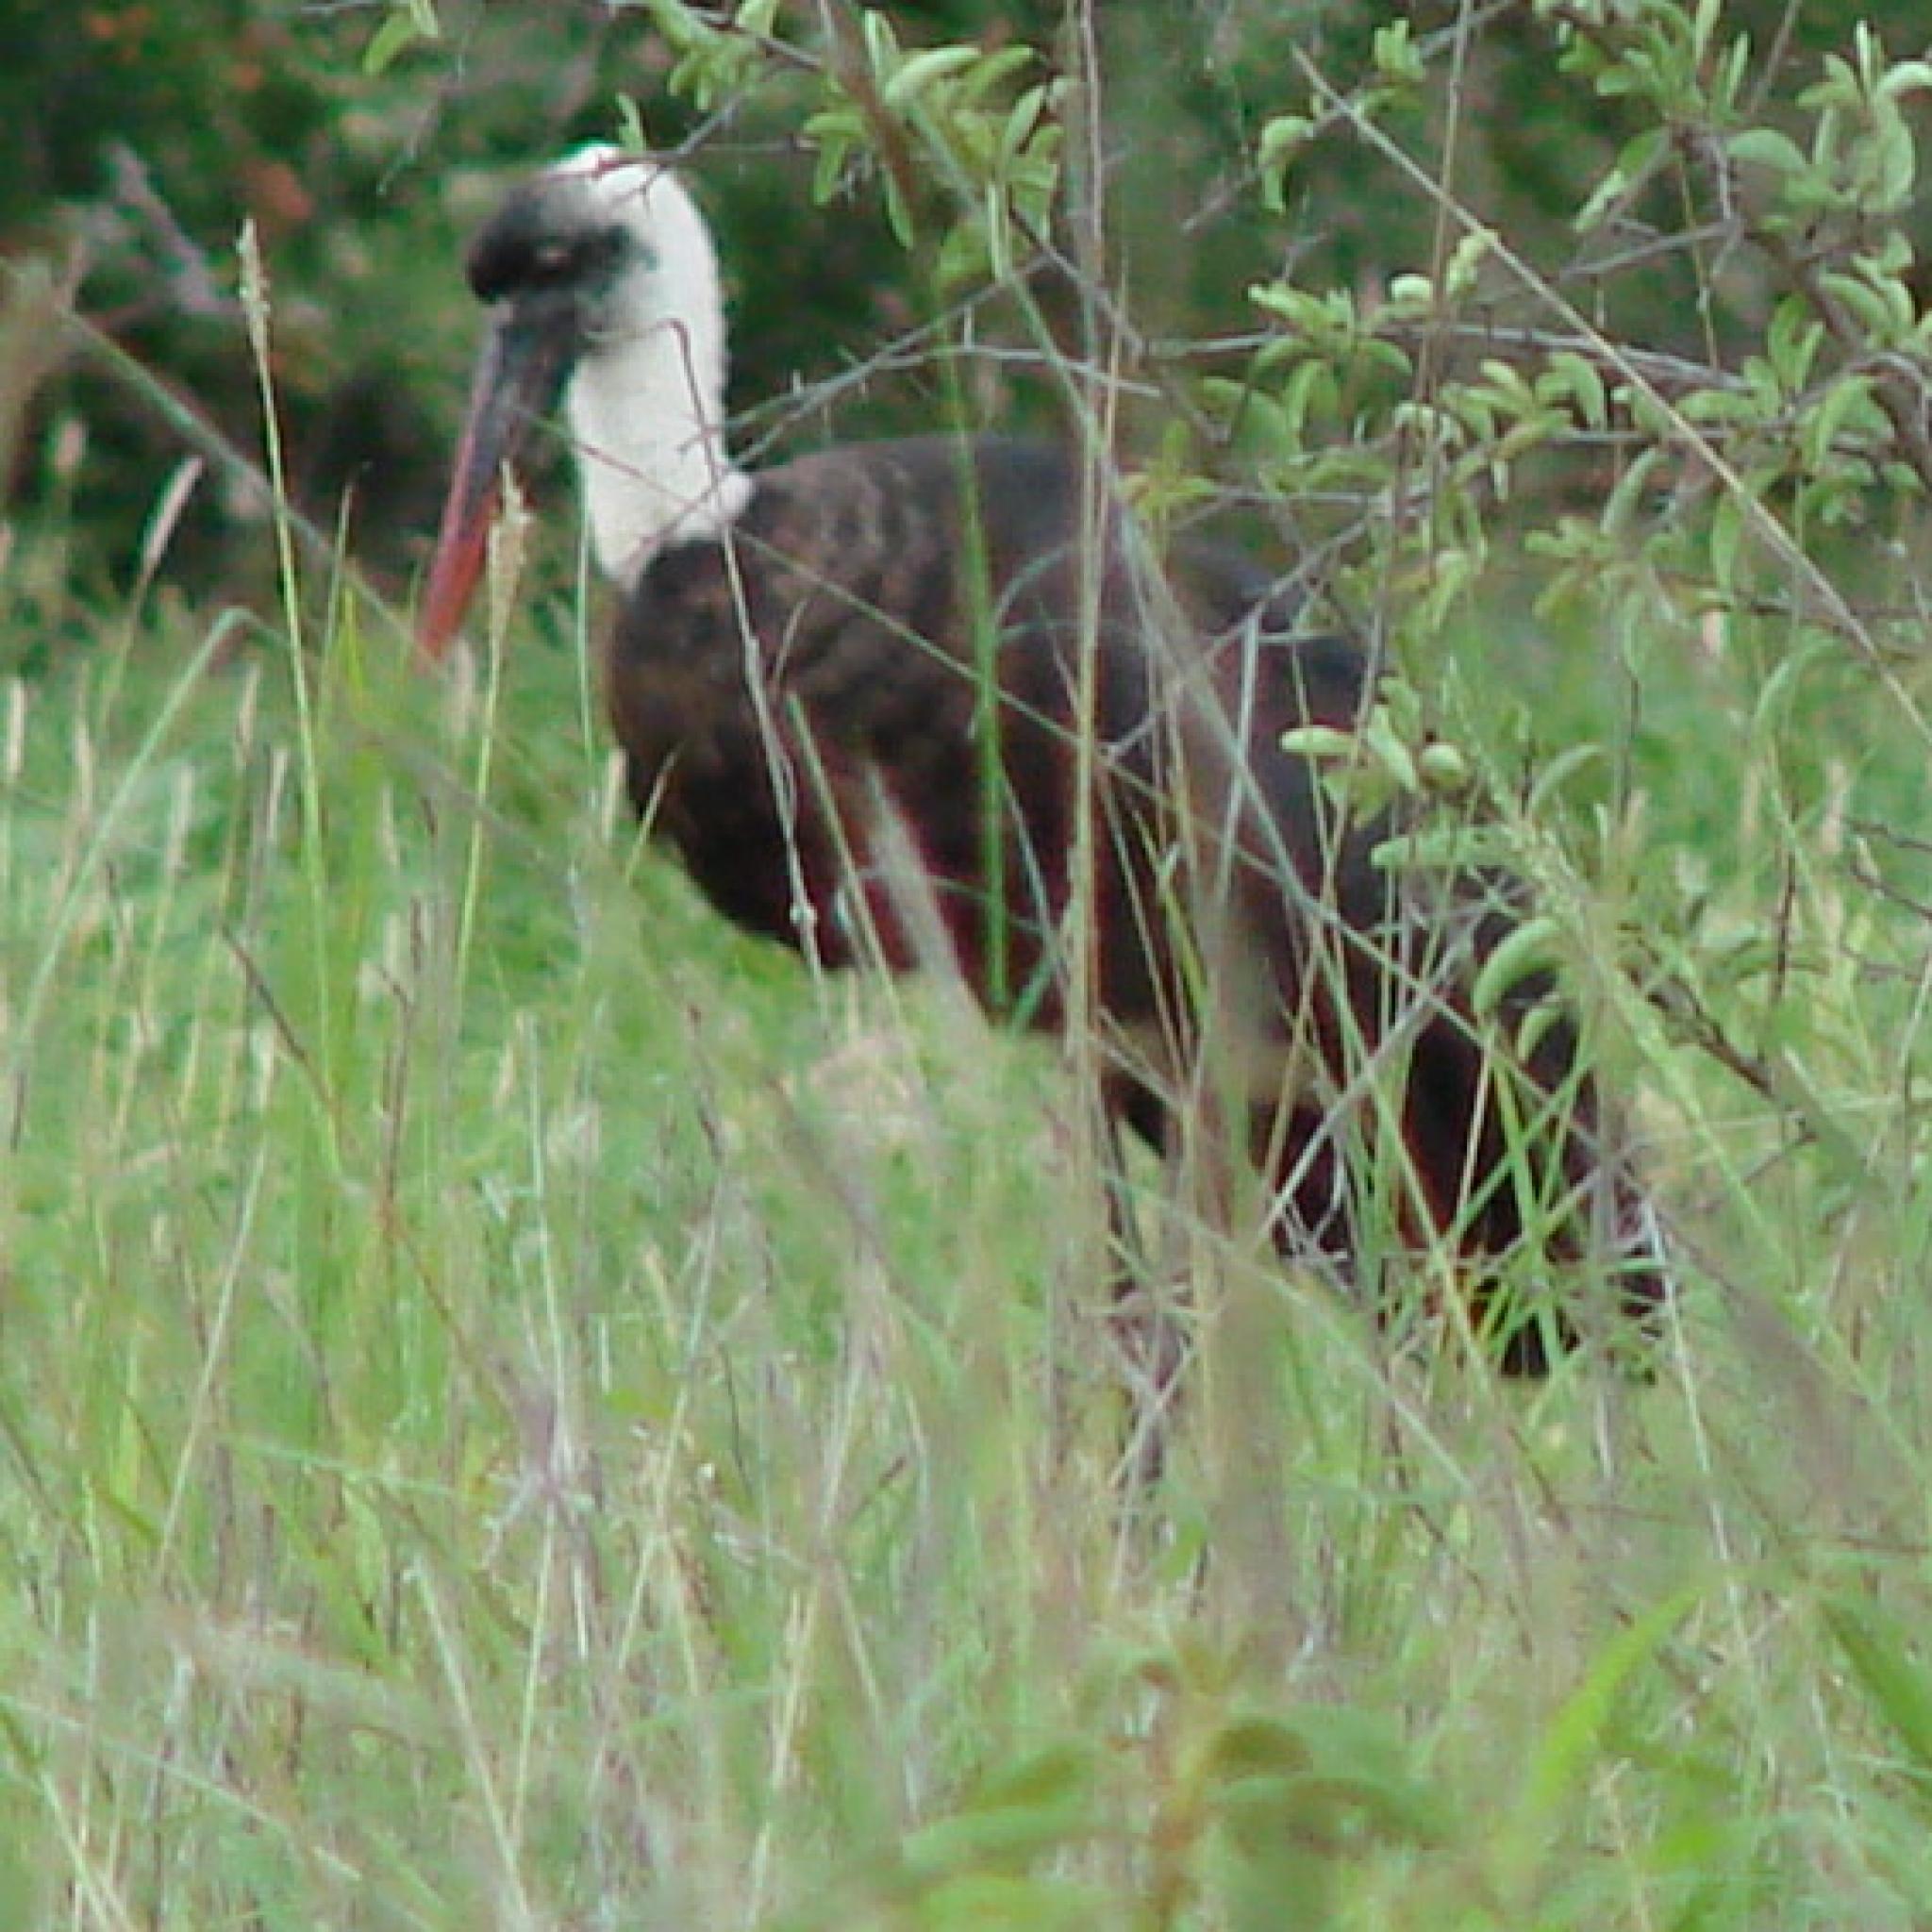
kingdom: Animalia
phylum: Chordata
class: Aves
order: Ciconiiformes
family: Ciconiidae
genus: Ciconia
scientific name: Ciconia microscelis
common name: African woollyneck
